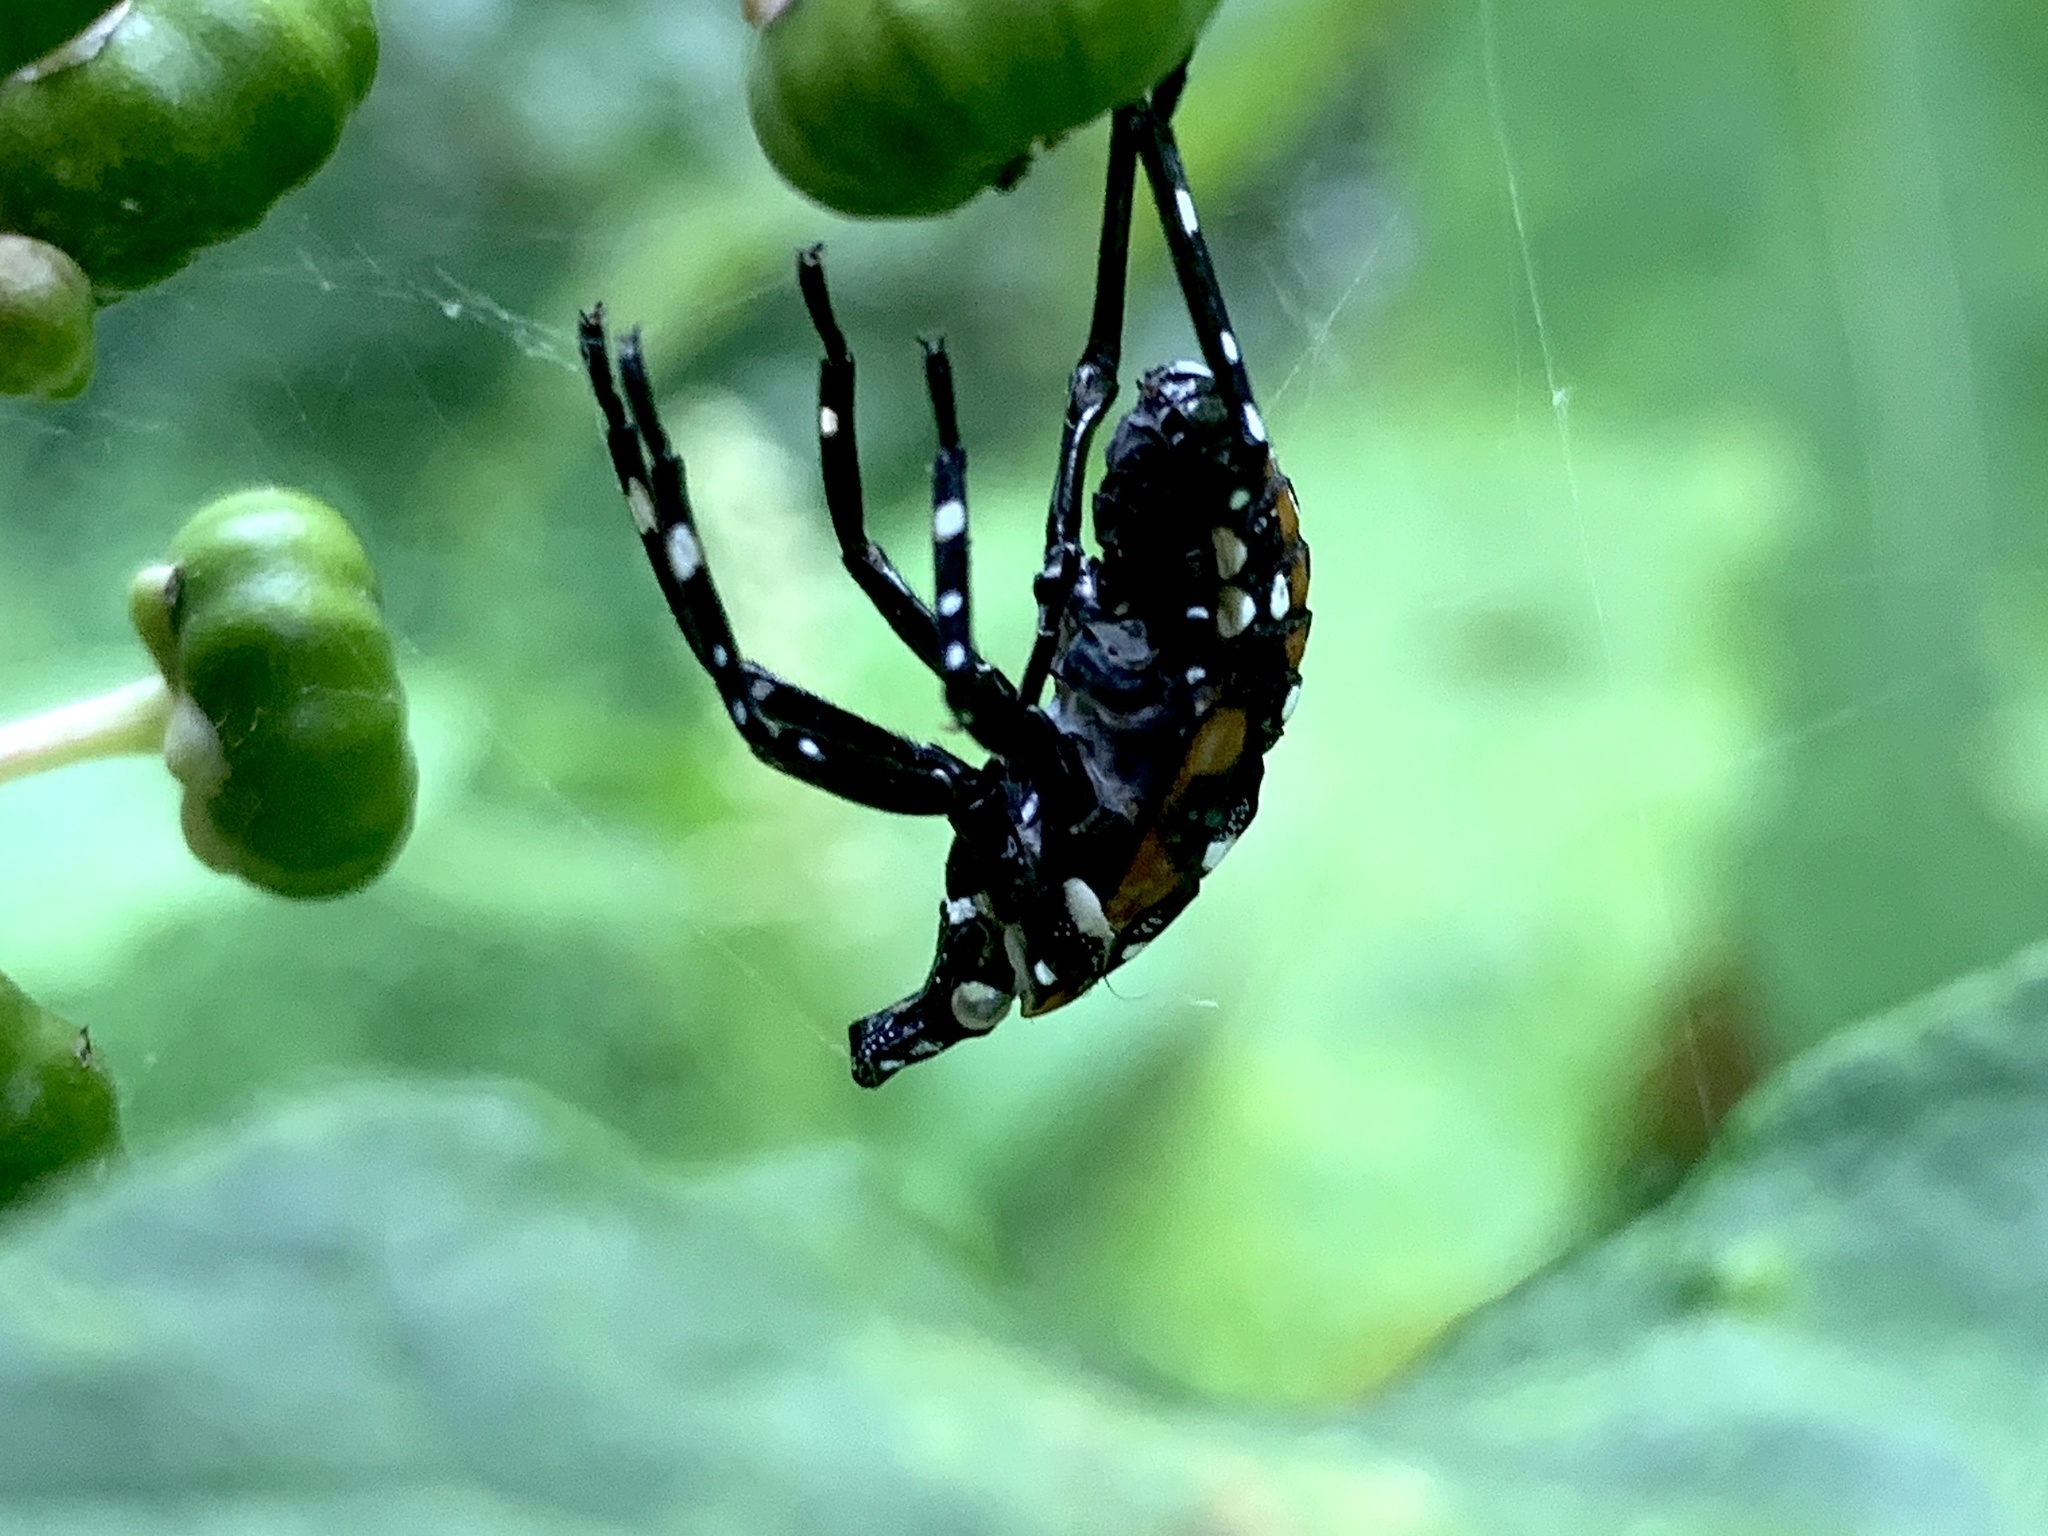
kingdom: Animalia
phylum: Arthropoda
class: Insecta
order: Hemiptera
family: Fulgoridae
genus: Lycorma
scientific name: Lycorma delicatula
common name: Spotted lanternfly
